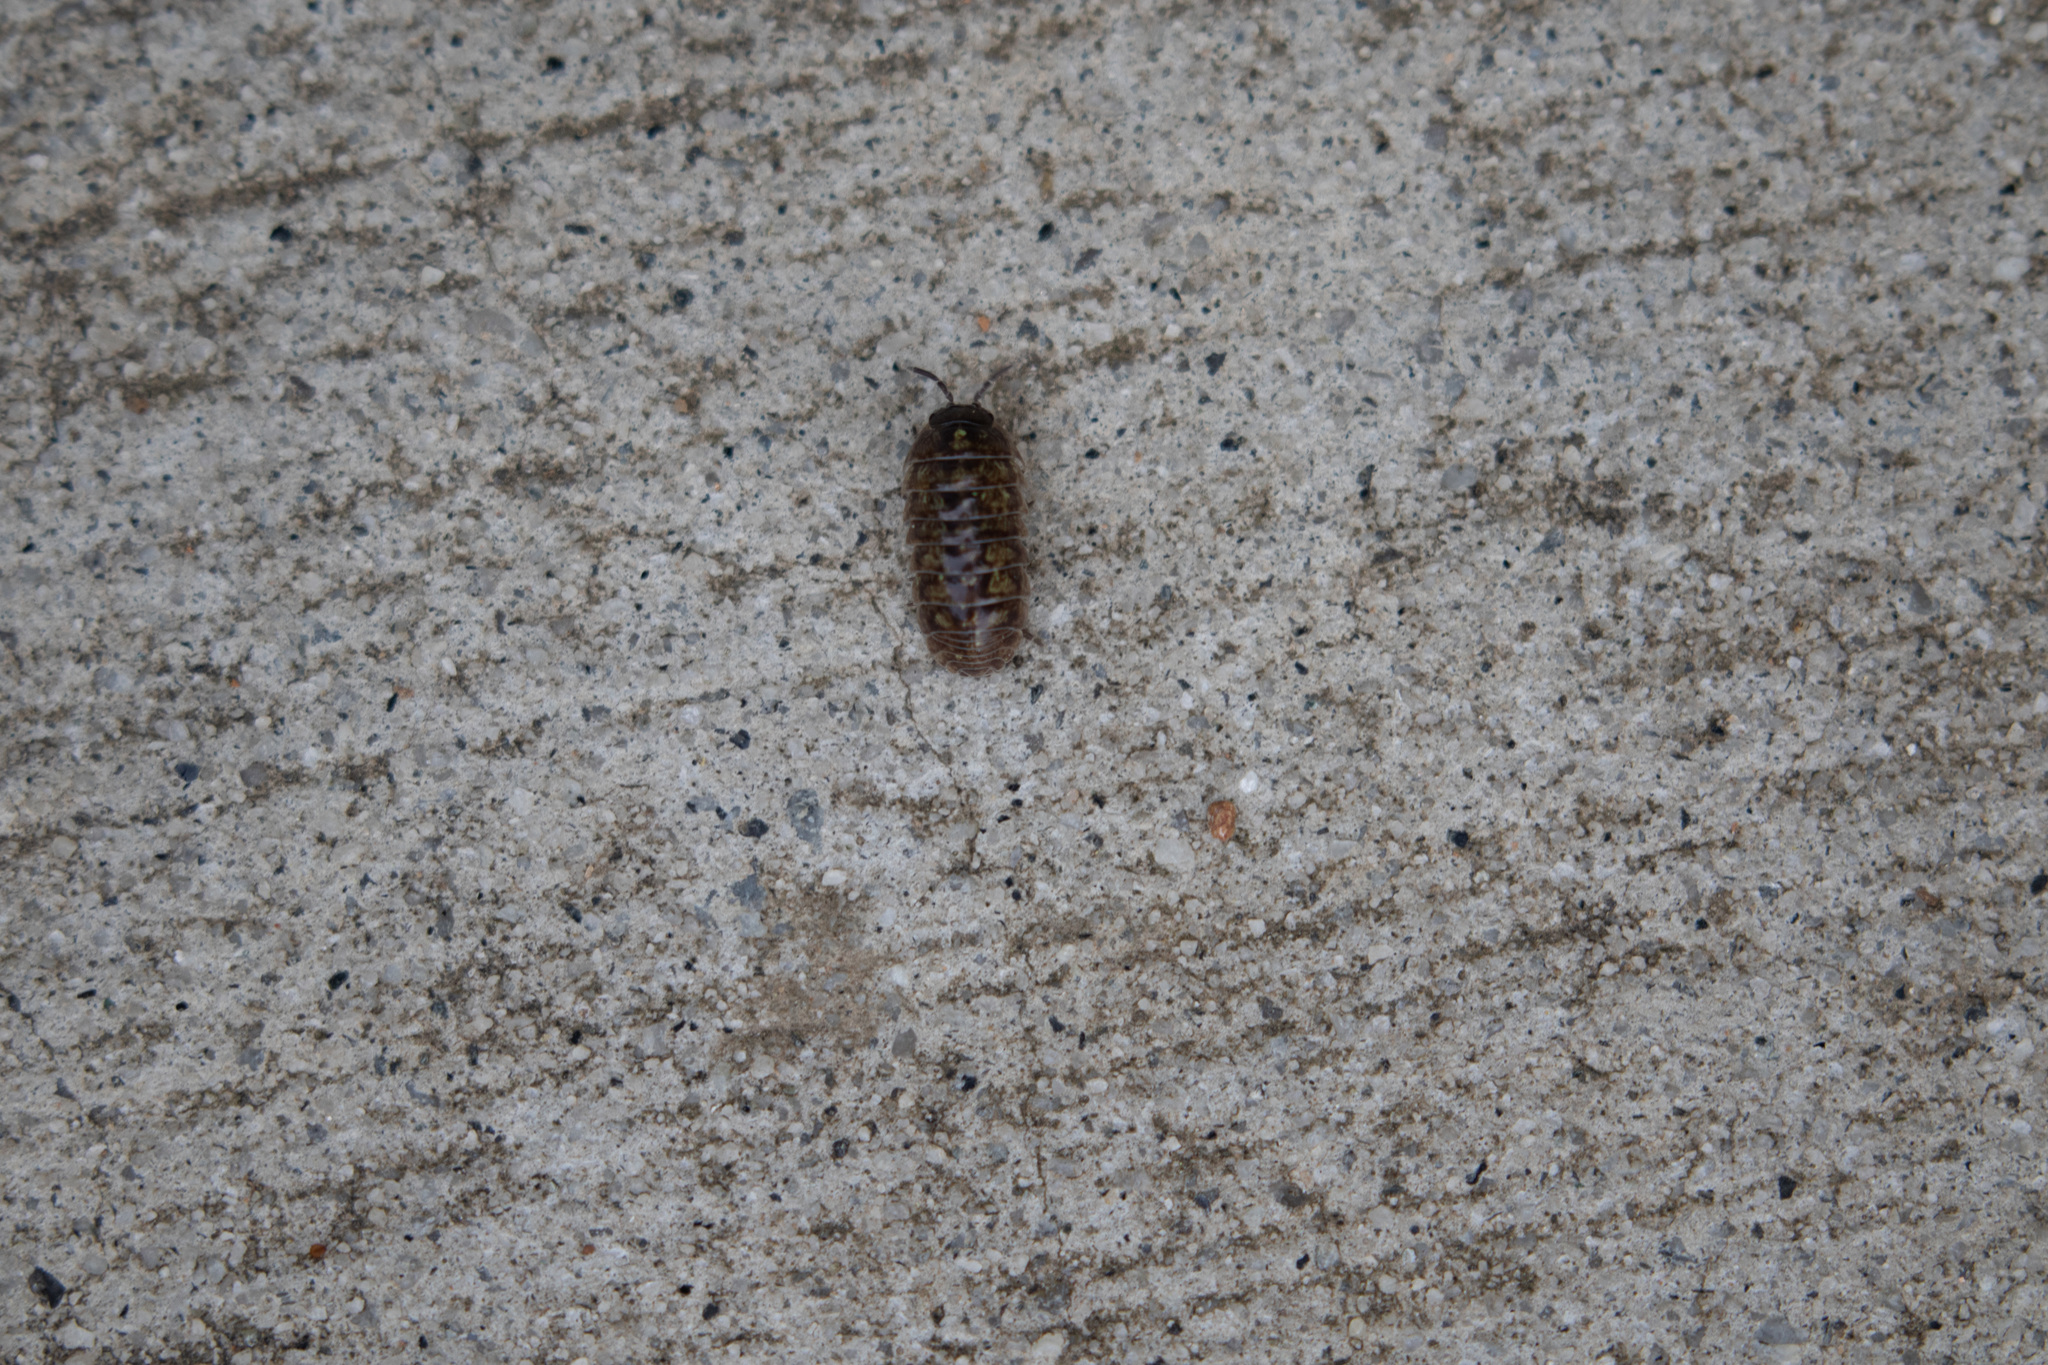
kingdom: Animalia
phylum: Arthropoda
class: Malacostraca
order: Isopoda
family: Armadillidiidae
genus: Armadillidium
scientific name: Armadillidium vulgare
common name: Common pill woodlouse
